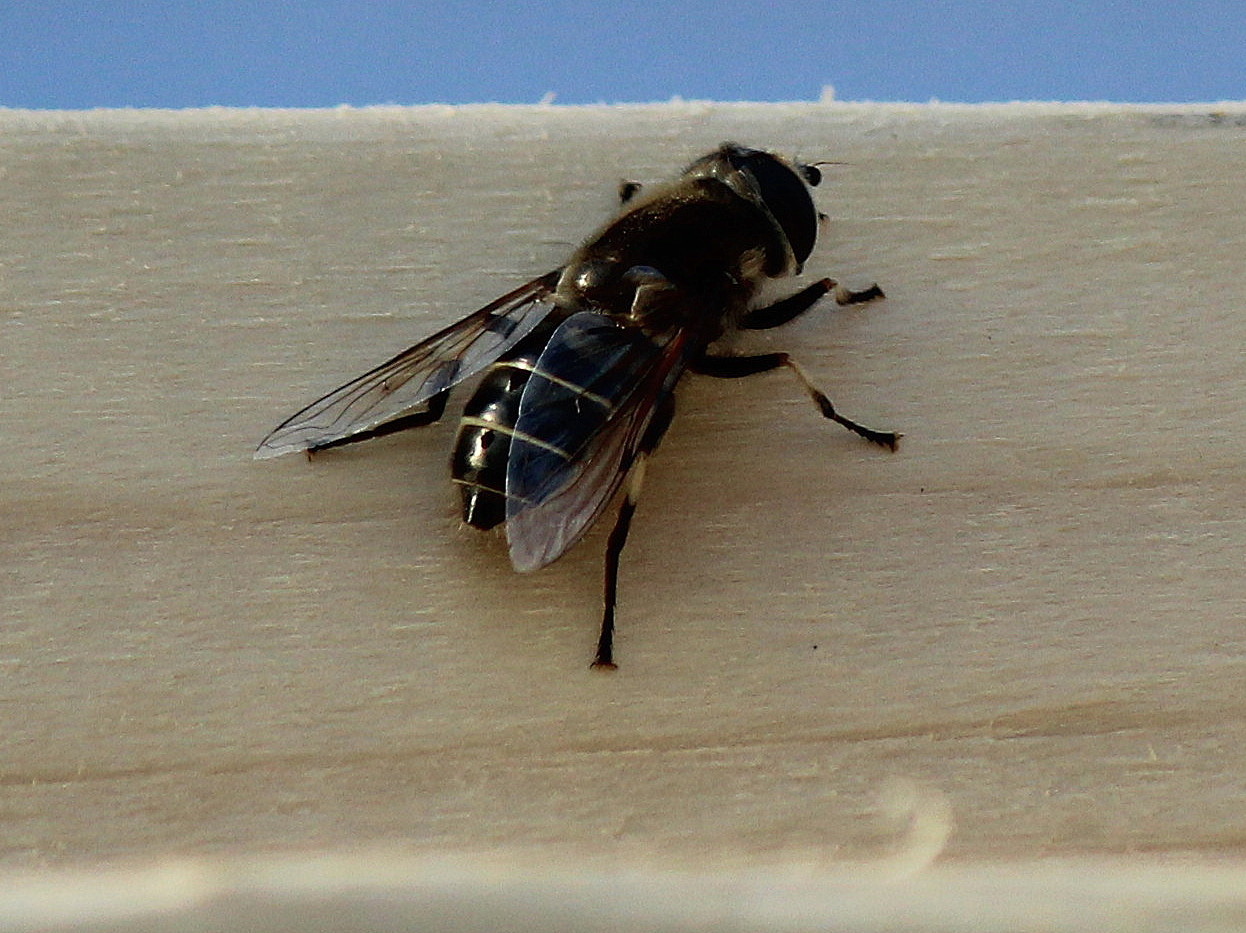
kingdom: Animalia
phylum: Arthropoda
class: Insecta
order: Diptera
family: Syrphidae
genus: Eristalis
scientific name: Eristalis dimidiata
